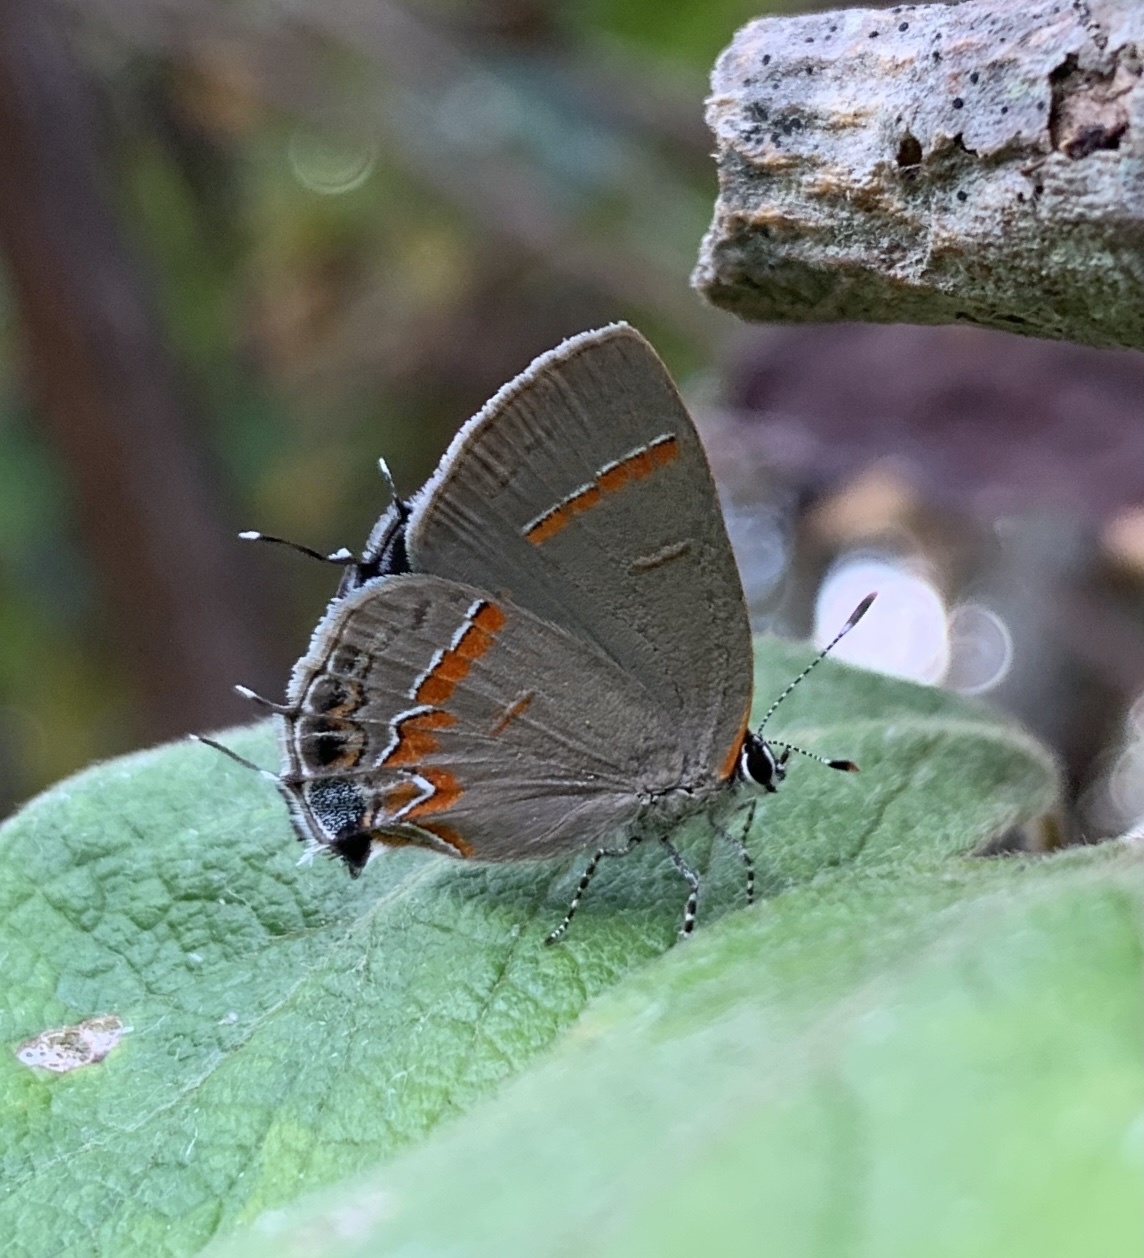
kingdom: Animalia
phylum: Arthropoda
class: Insecta
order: Lepidoptera
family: Lycaenidae
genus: Calycopis
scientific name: Calycopis cecrops
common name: Red-banded hairstreak
